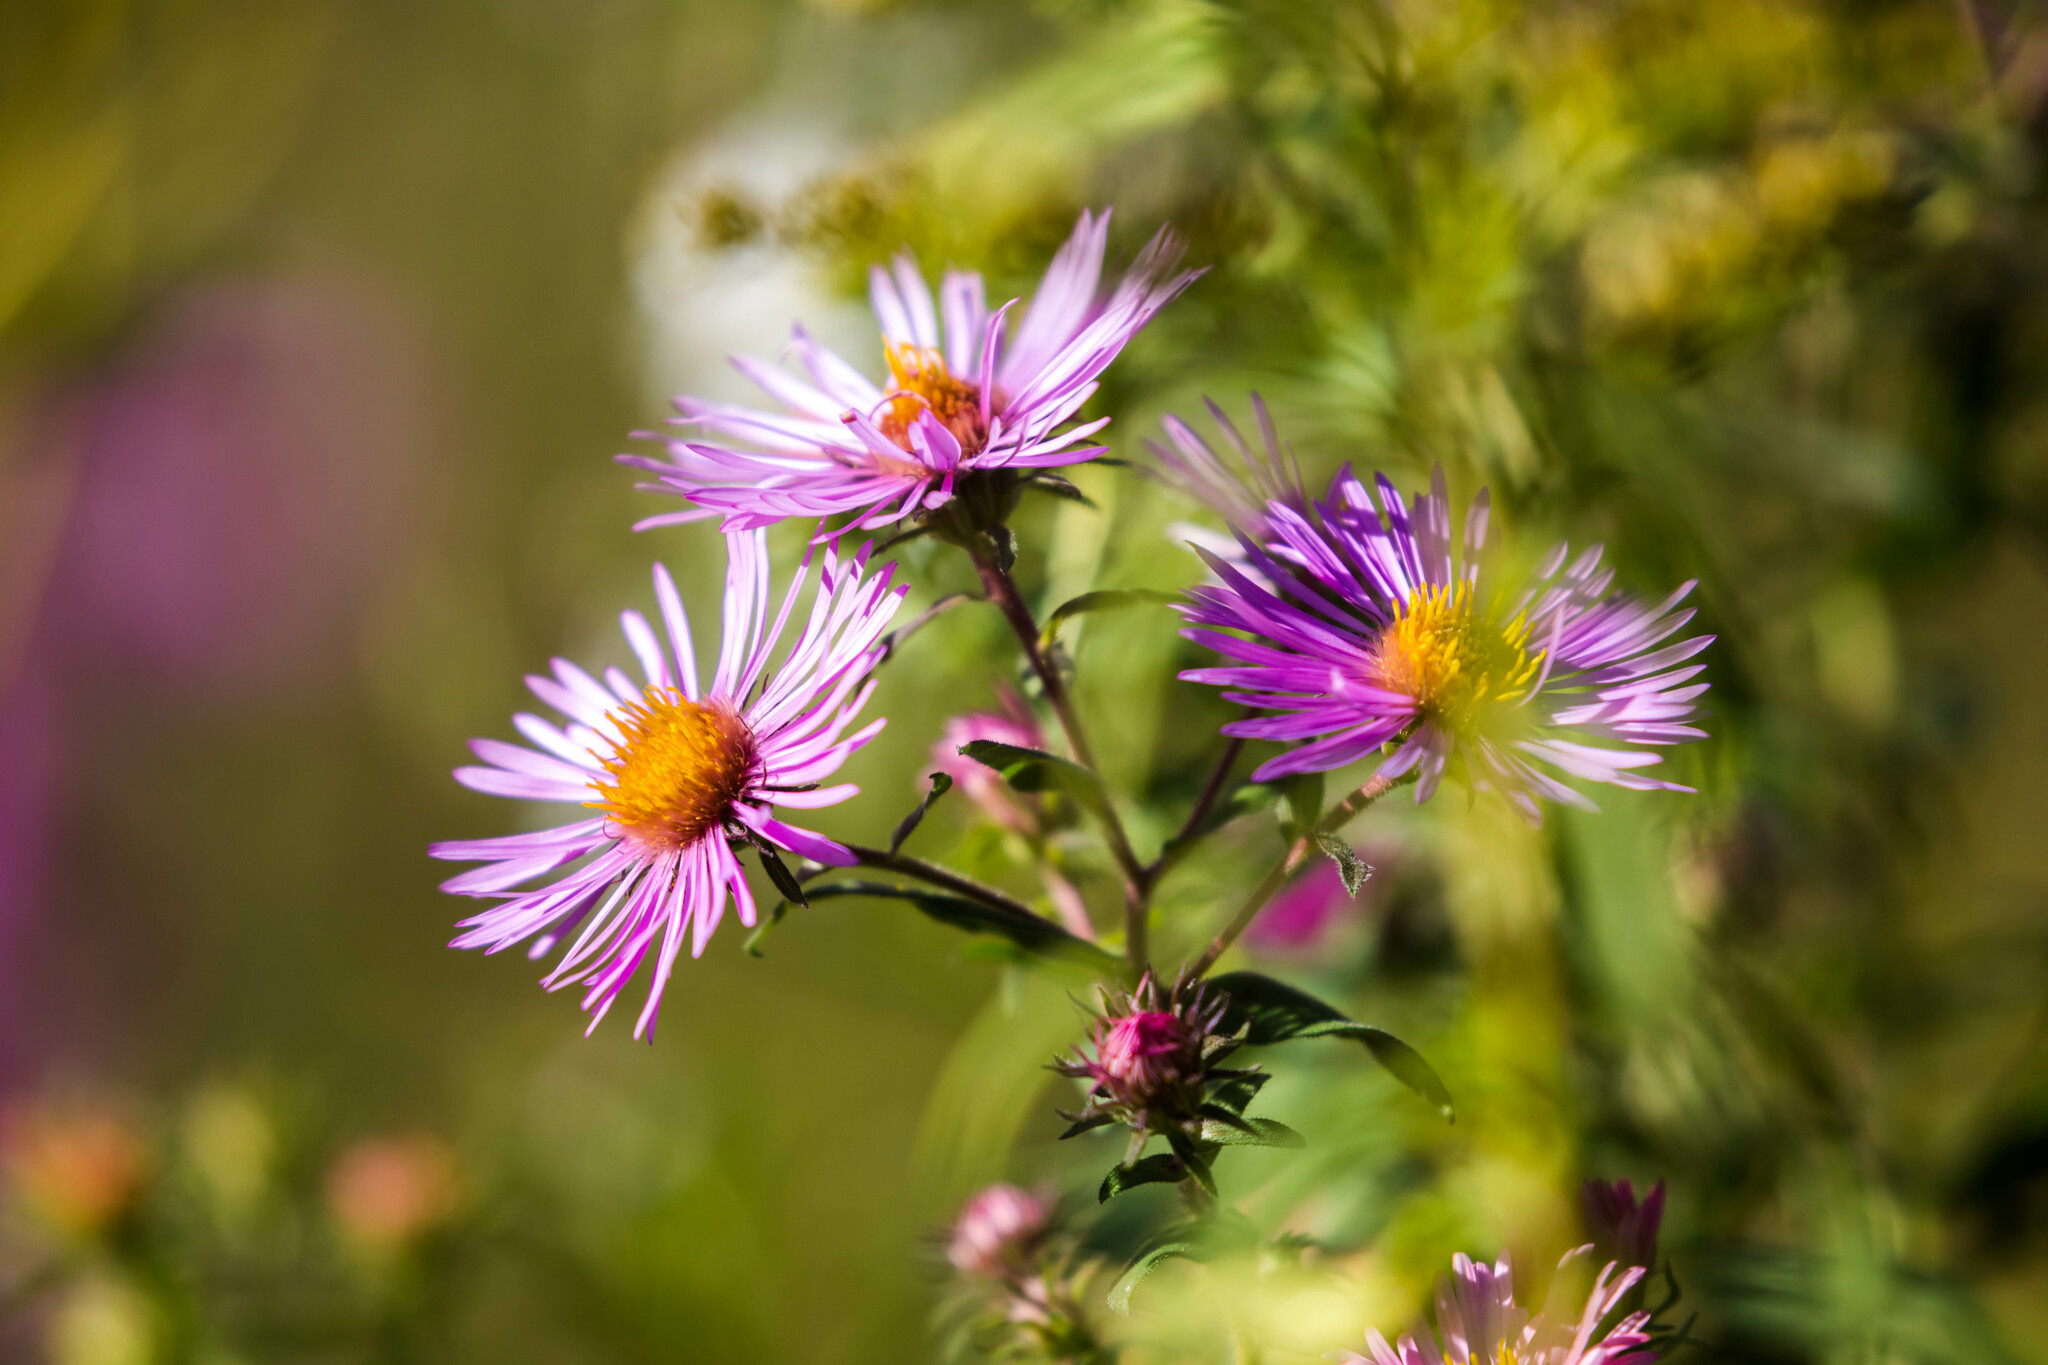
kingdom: Plantae
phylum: Tracheophyta
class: Magnoliopsida
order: Asterales
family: Asteraceae
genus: Symphyotrichum
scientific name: Symphyotrichum novae-angliae
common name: Michaelmas daisy
